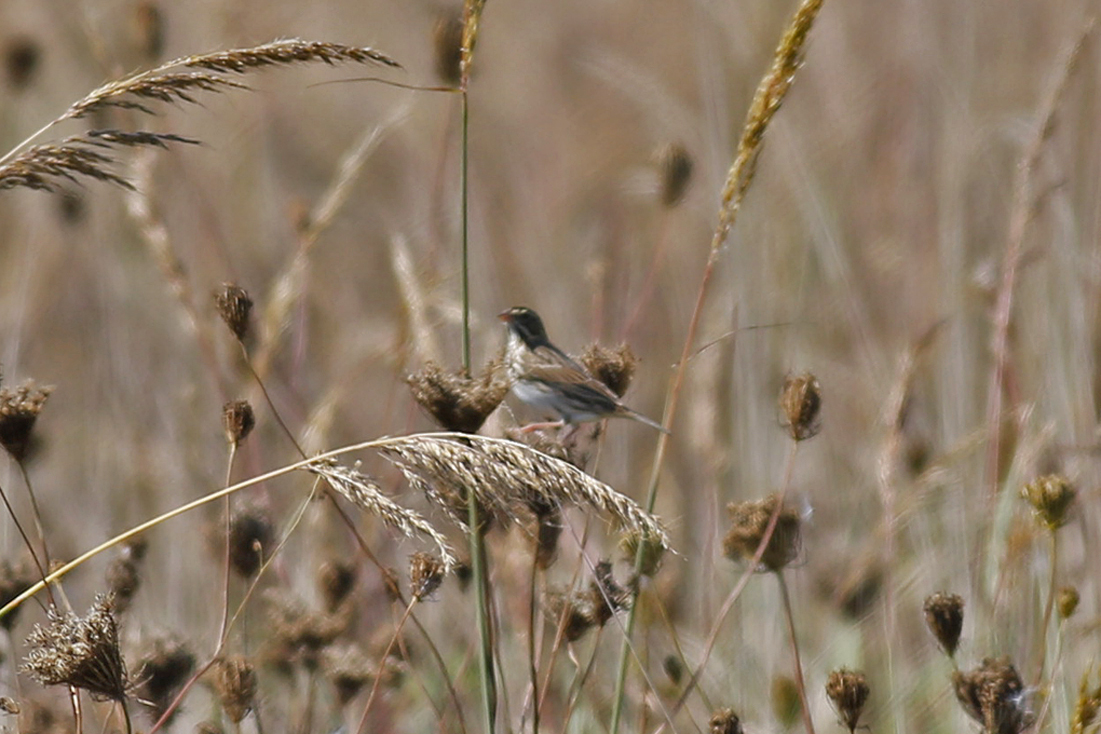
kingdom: Animalia
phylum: Chordata
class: Aves
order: Passeriformes
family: Passerellidae
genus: Passerculus
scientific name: Passerculus sandwichensis
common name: Savannah sparrow
